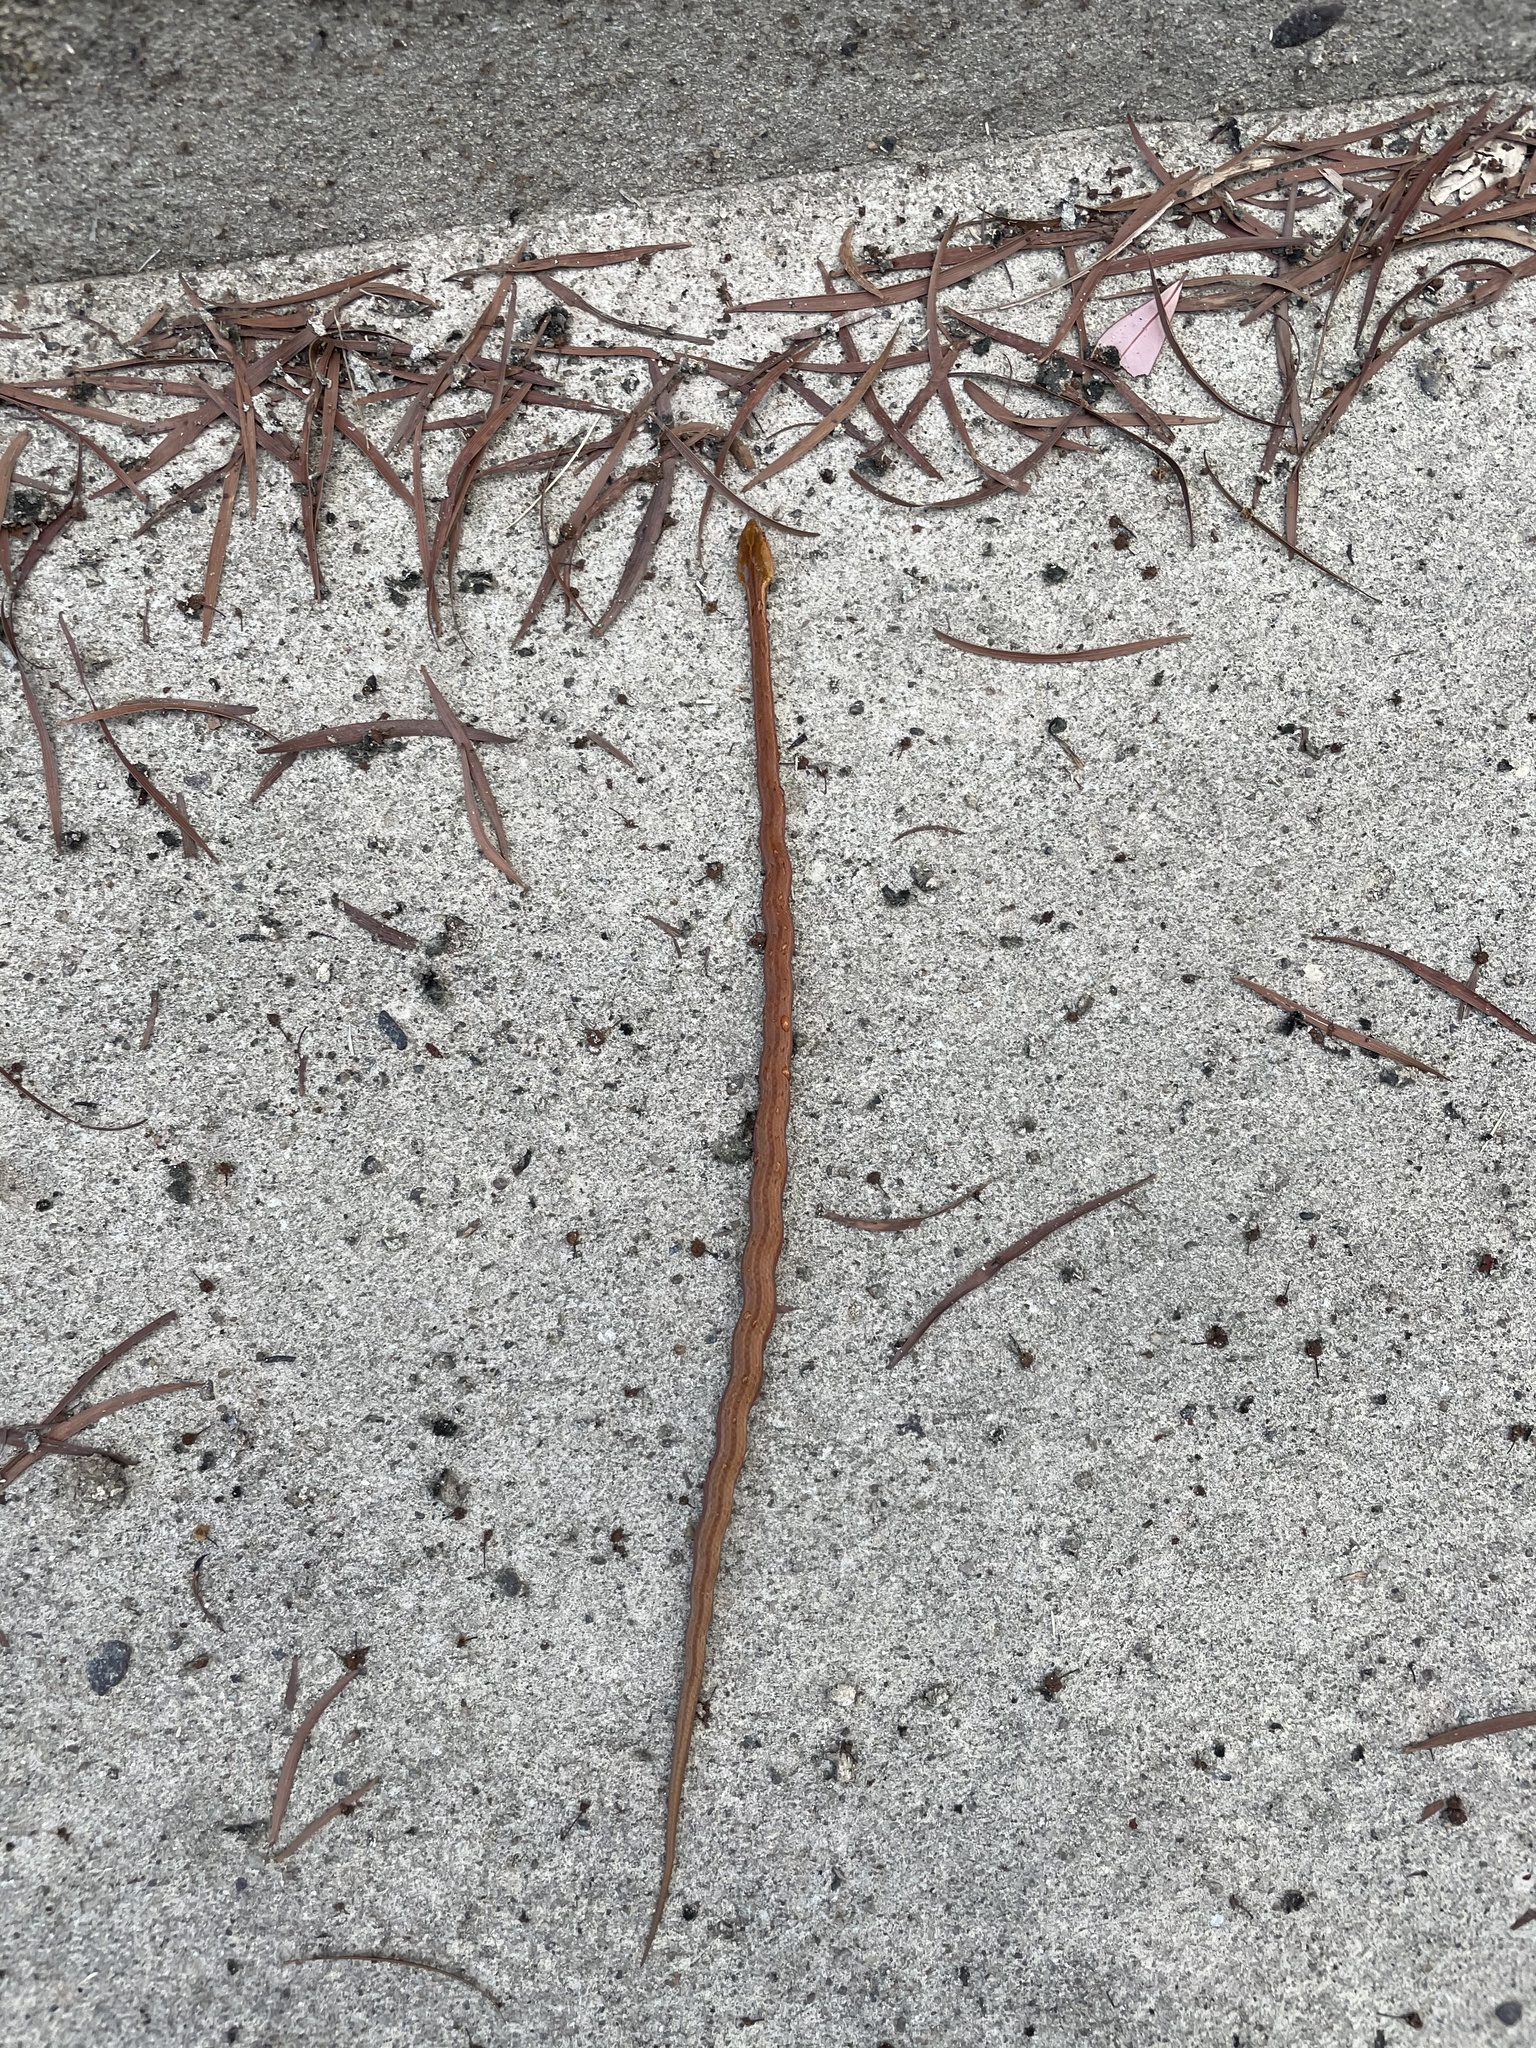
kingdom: Animalia
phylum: Chordata
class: Squamata
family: Pseudaspididae
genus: Psammodynastes
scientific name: Psammodynastes pulverulentus
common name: Common mock viper
